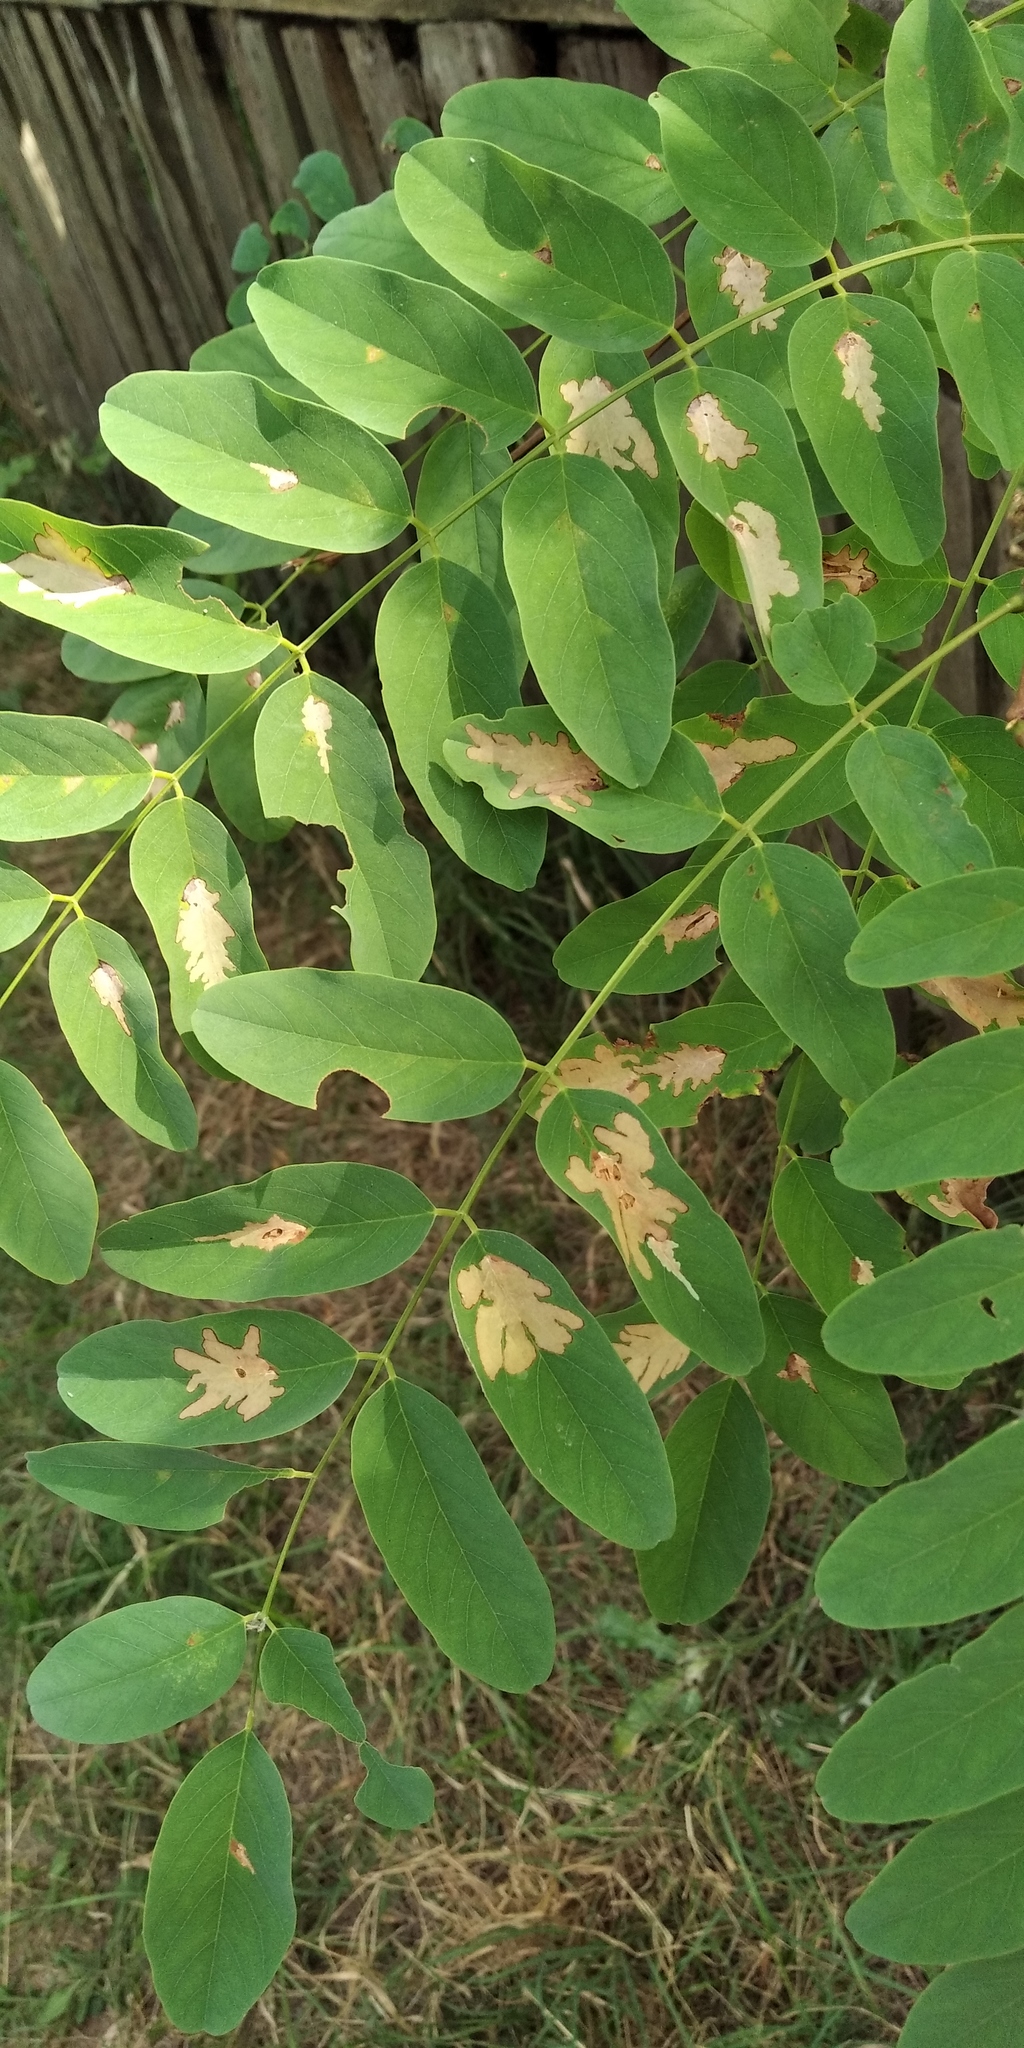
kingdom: Animalia
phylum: Arthropoda
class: Insecta
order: Lepidoptera
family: Gracillariidae
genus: Parectopa
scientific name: Parectopa robiniella
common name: Locust digitate leafminer
